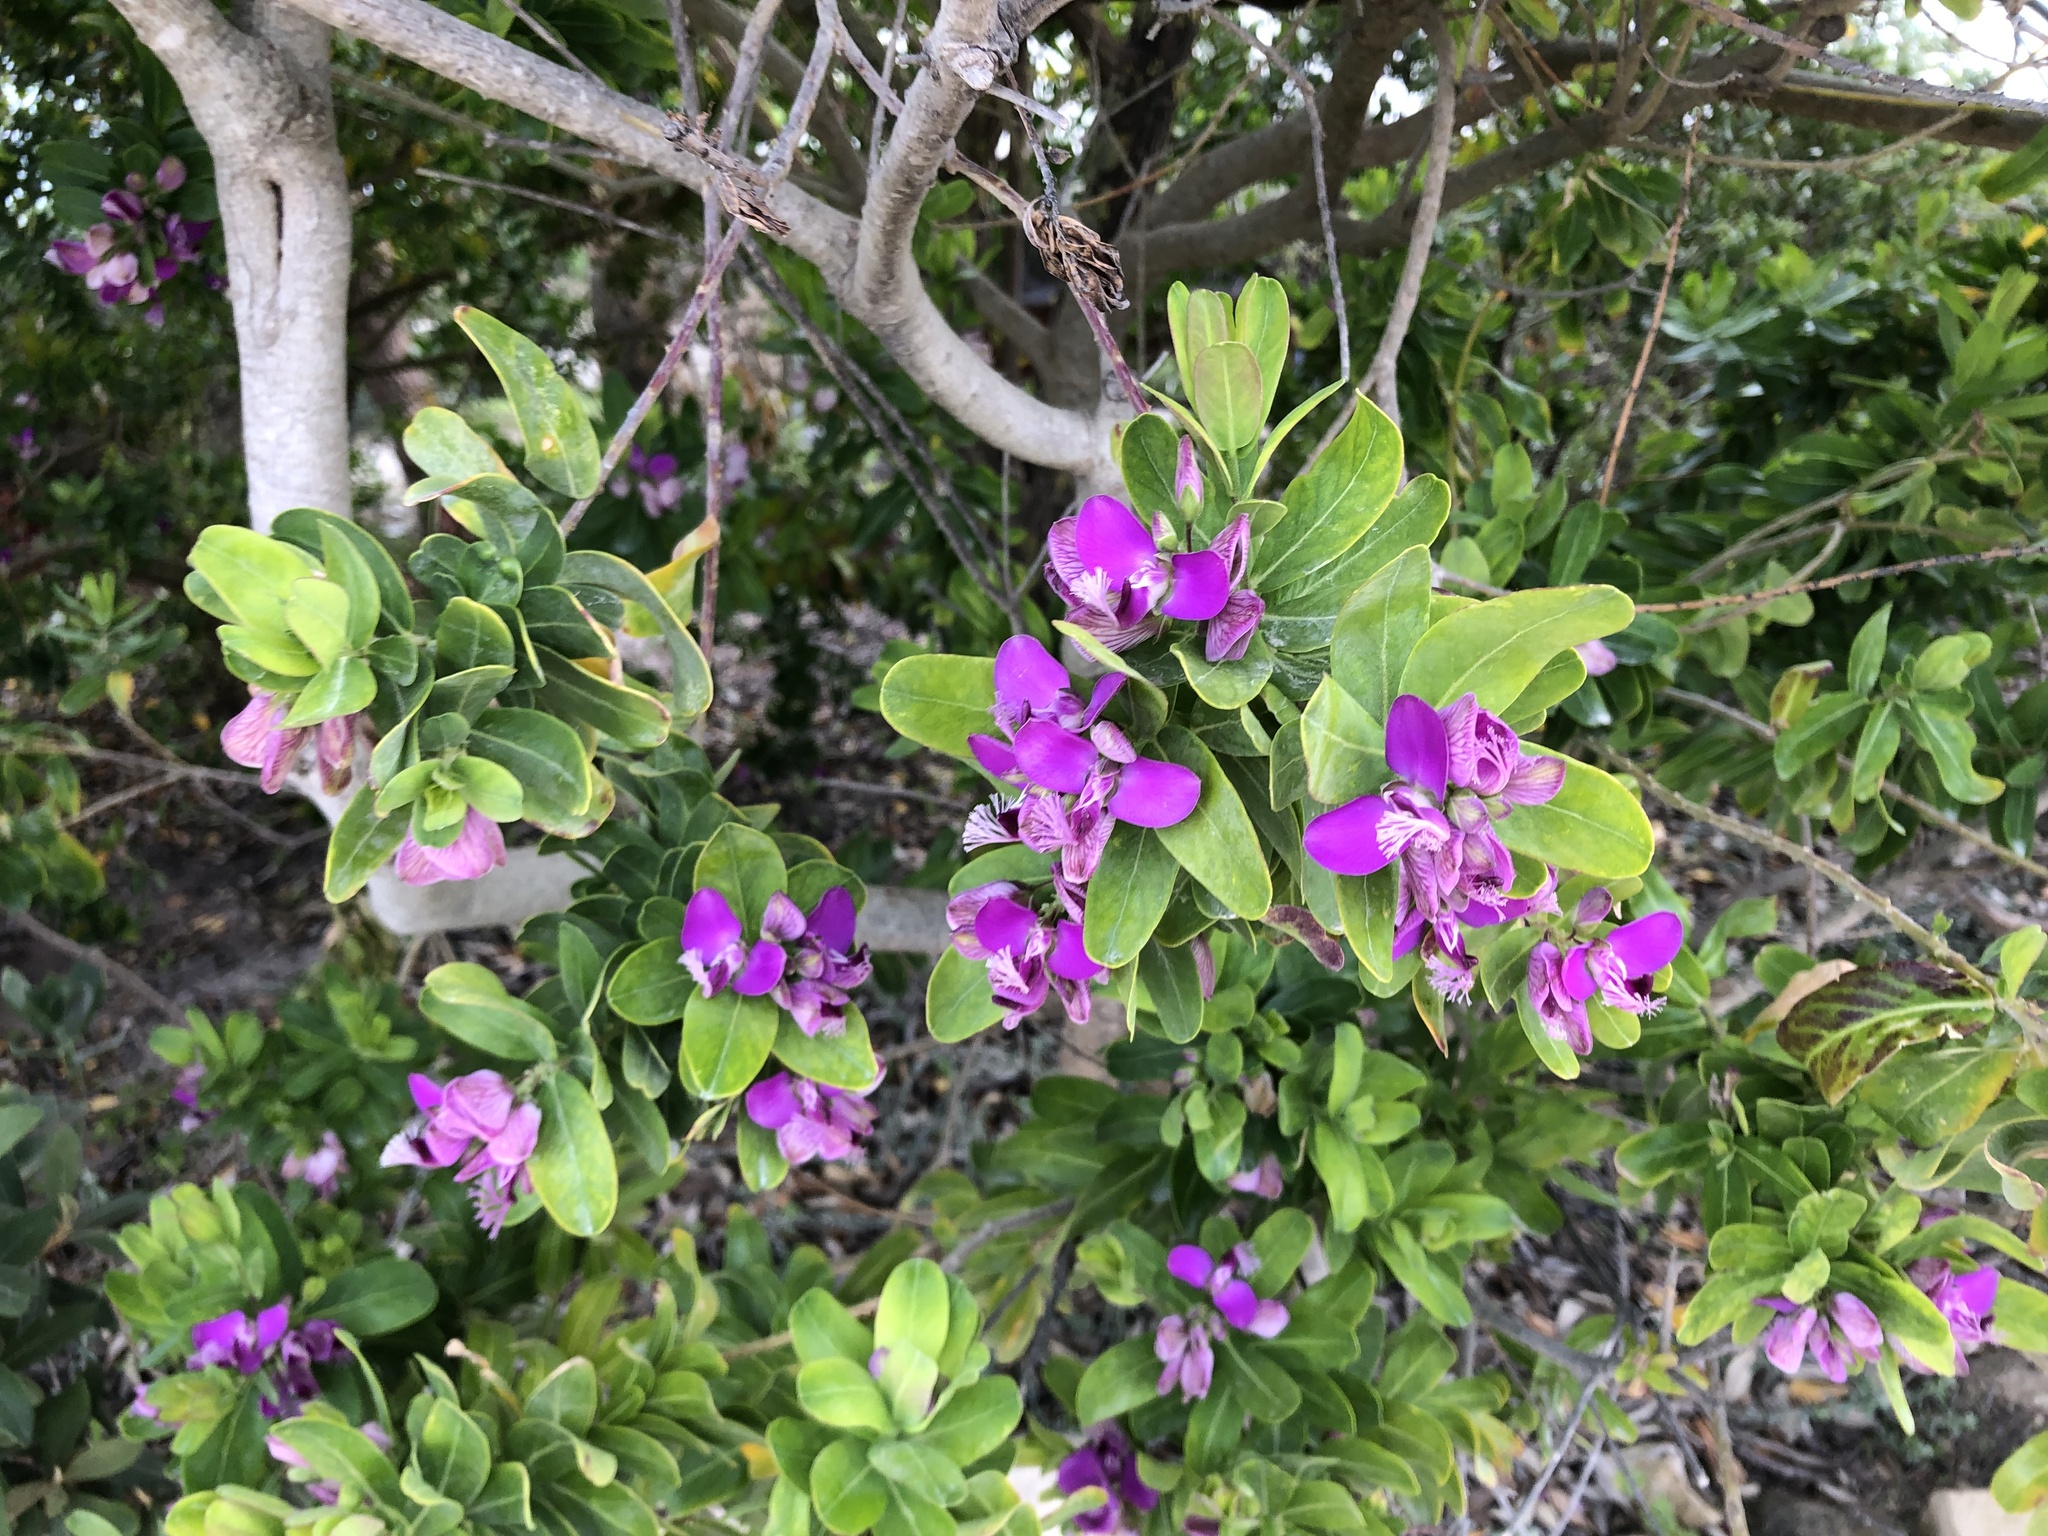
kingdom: Plantae
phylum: Tracheophyta
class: Magnoliopsida
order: Fabales
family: Polygalaceae
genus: Polygala
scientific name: Polygala myrtifolia
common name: Myrtle-leaf milkwort
